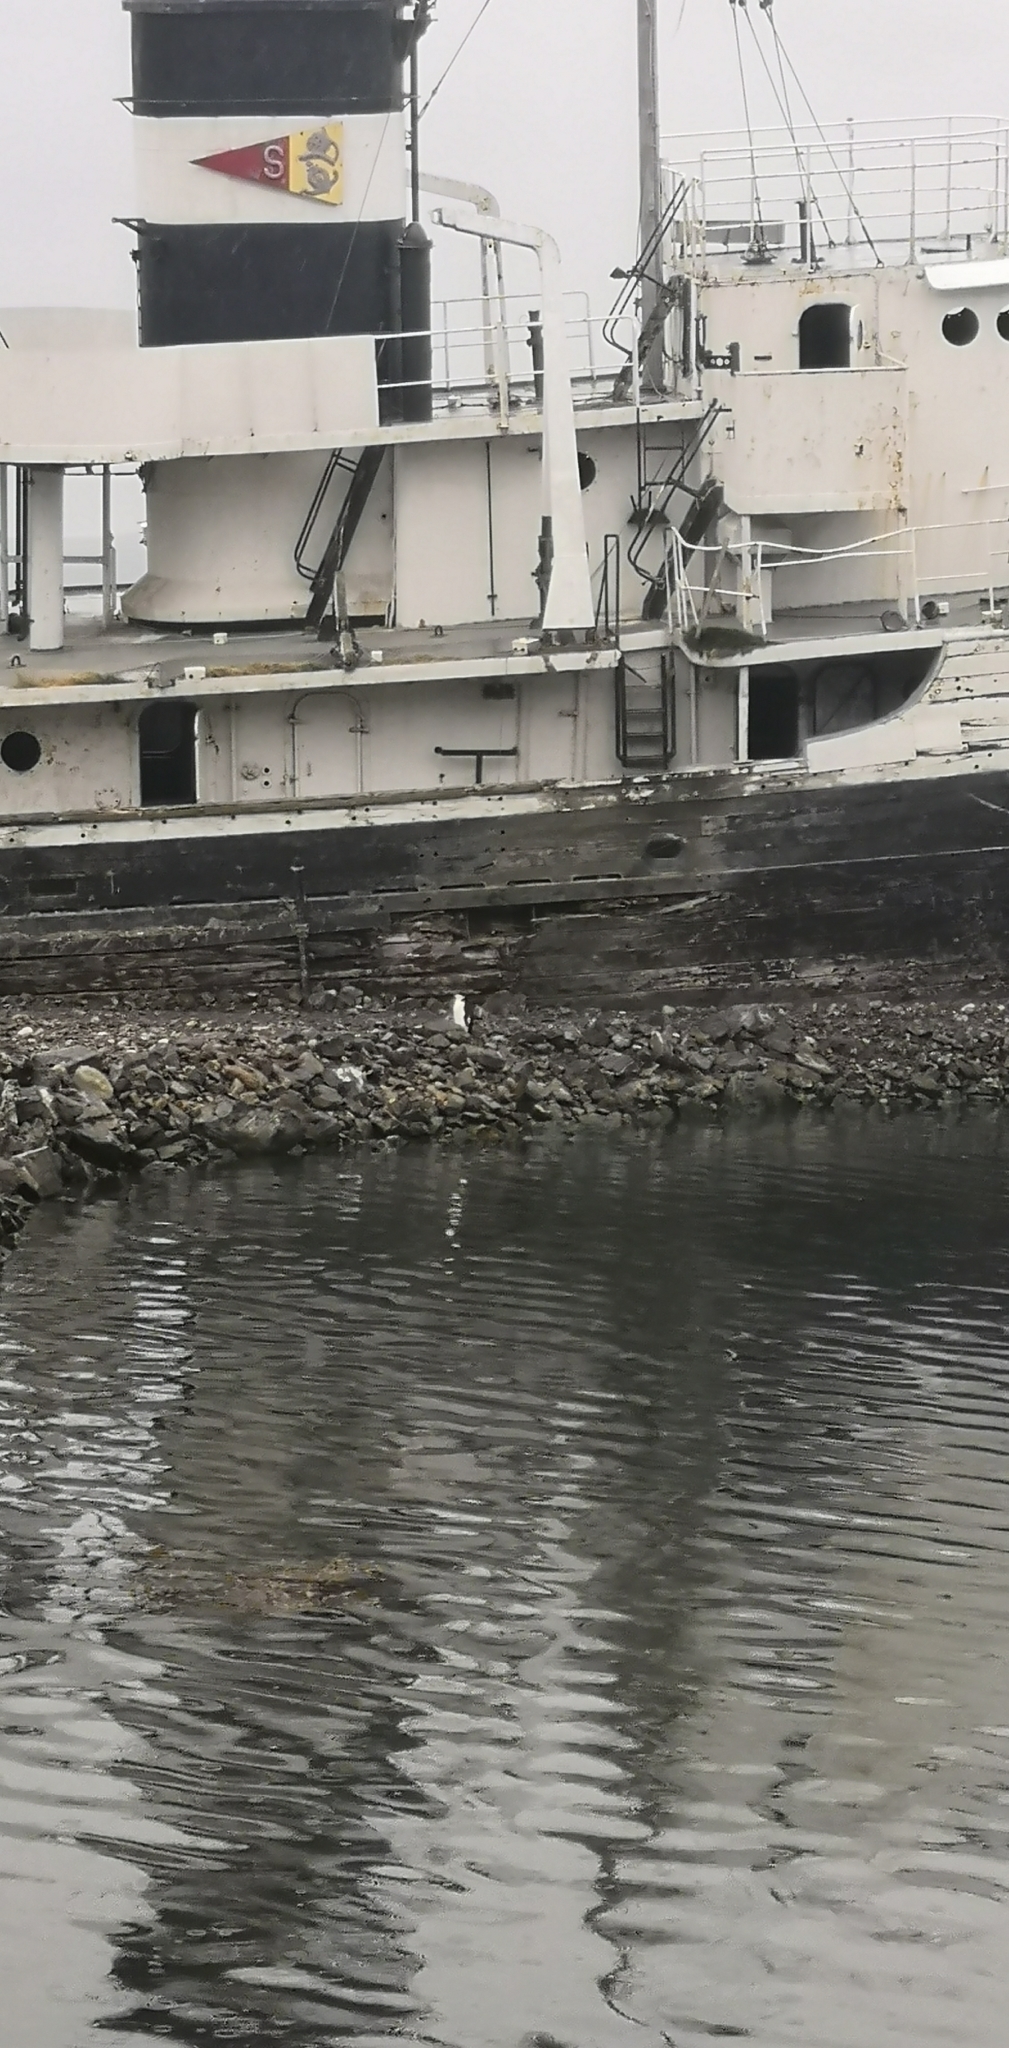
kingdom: Animalia
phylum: Chordata
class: Aves
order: Sphenisciformes
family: Spheniscidae
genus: Pygoscelis
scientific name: Pygoscelis antarcticus
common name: Chinstrap penguin
